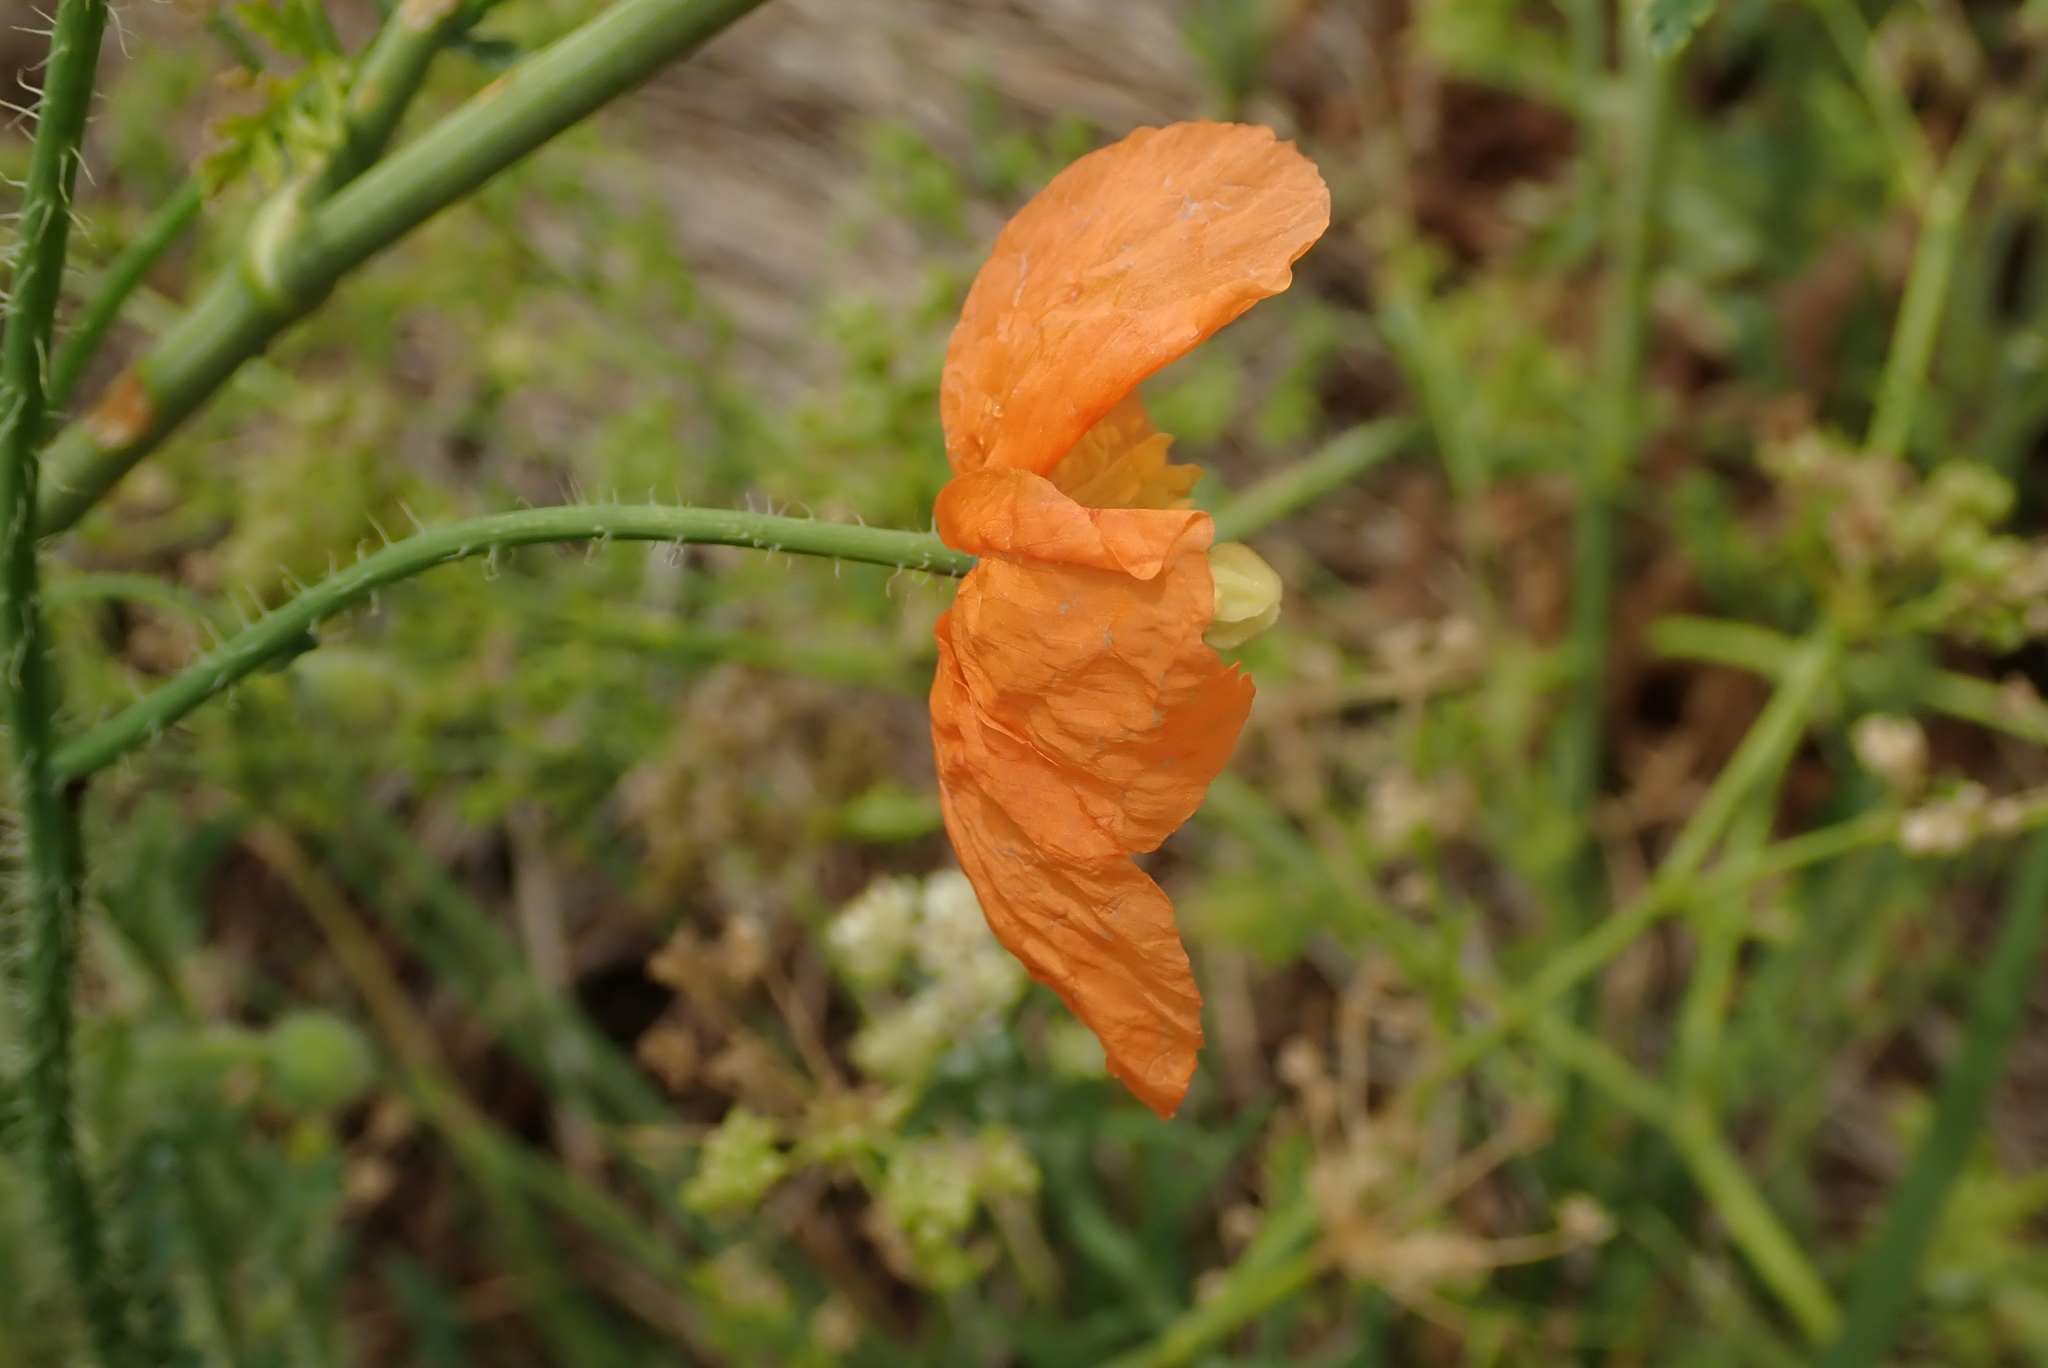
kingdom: Plantae
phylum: Tracheophyta
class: Magnoliopsida
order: Ranunculales
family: Papaveraceae
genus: Papaver
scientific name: Papaver aculeatum
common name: Bristle poppy
